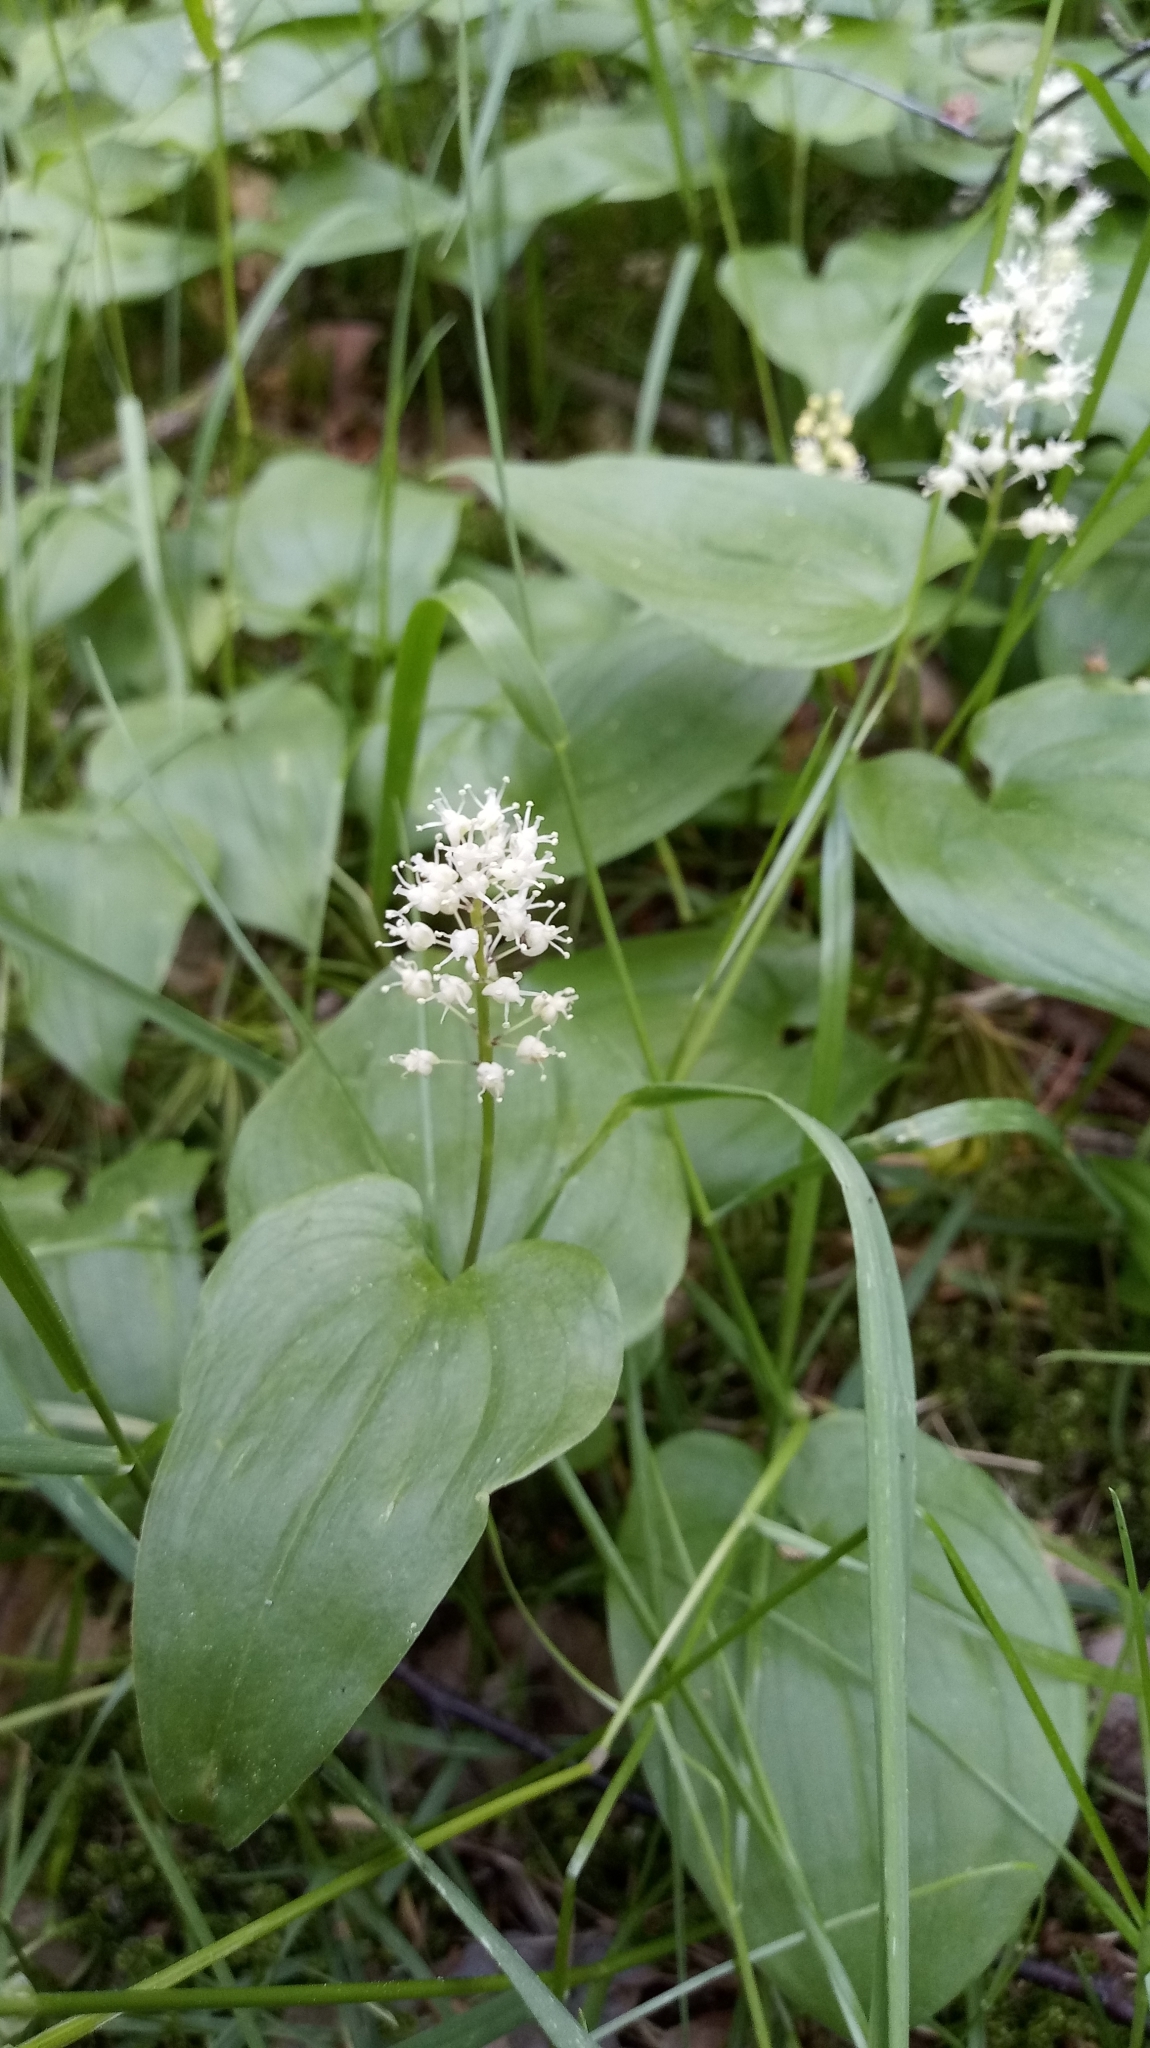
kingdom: Plantae
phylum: Tracheophyta
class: Liliopsida
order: Asparagales
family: Asparagaceae
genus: Maianthemum
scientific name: Maianthemum bifolium
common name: May lily
